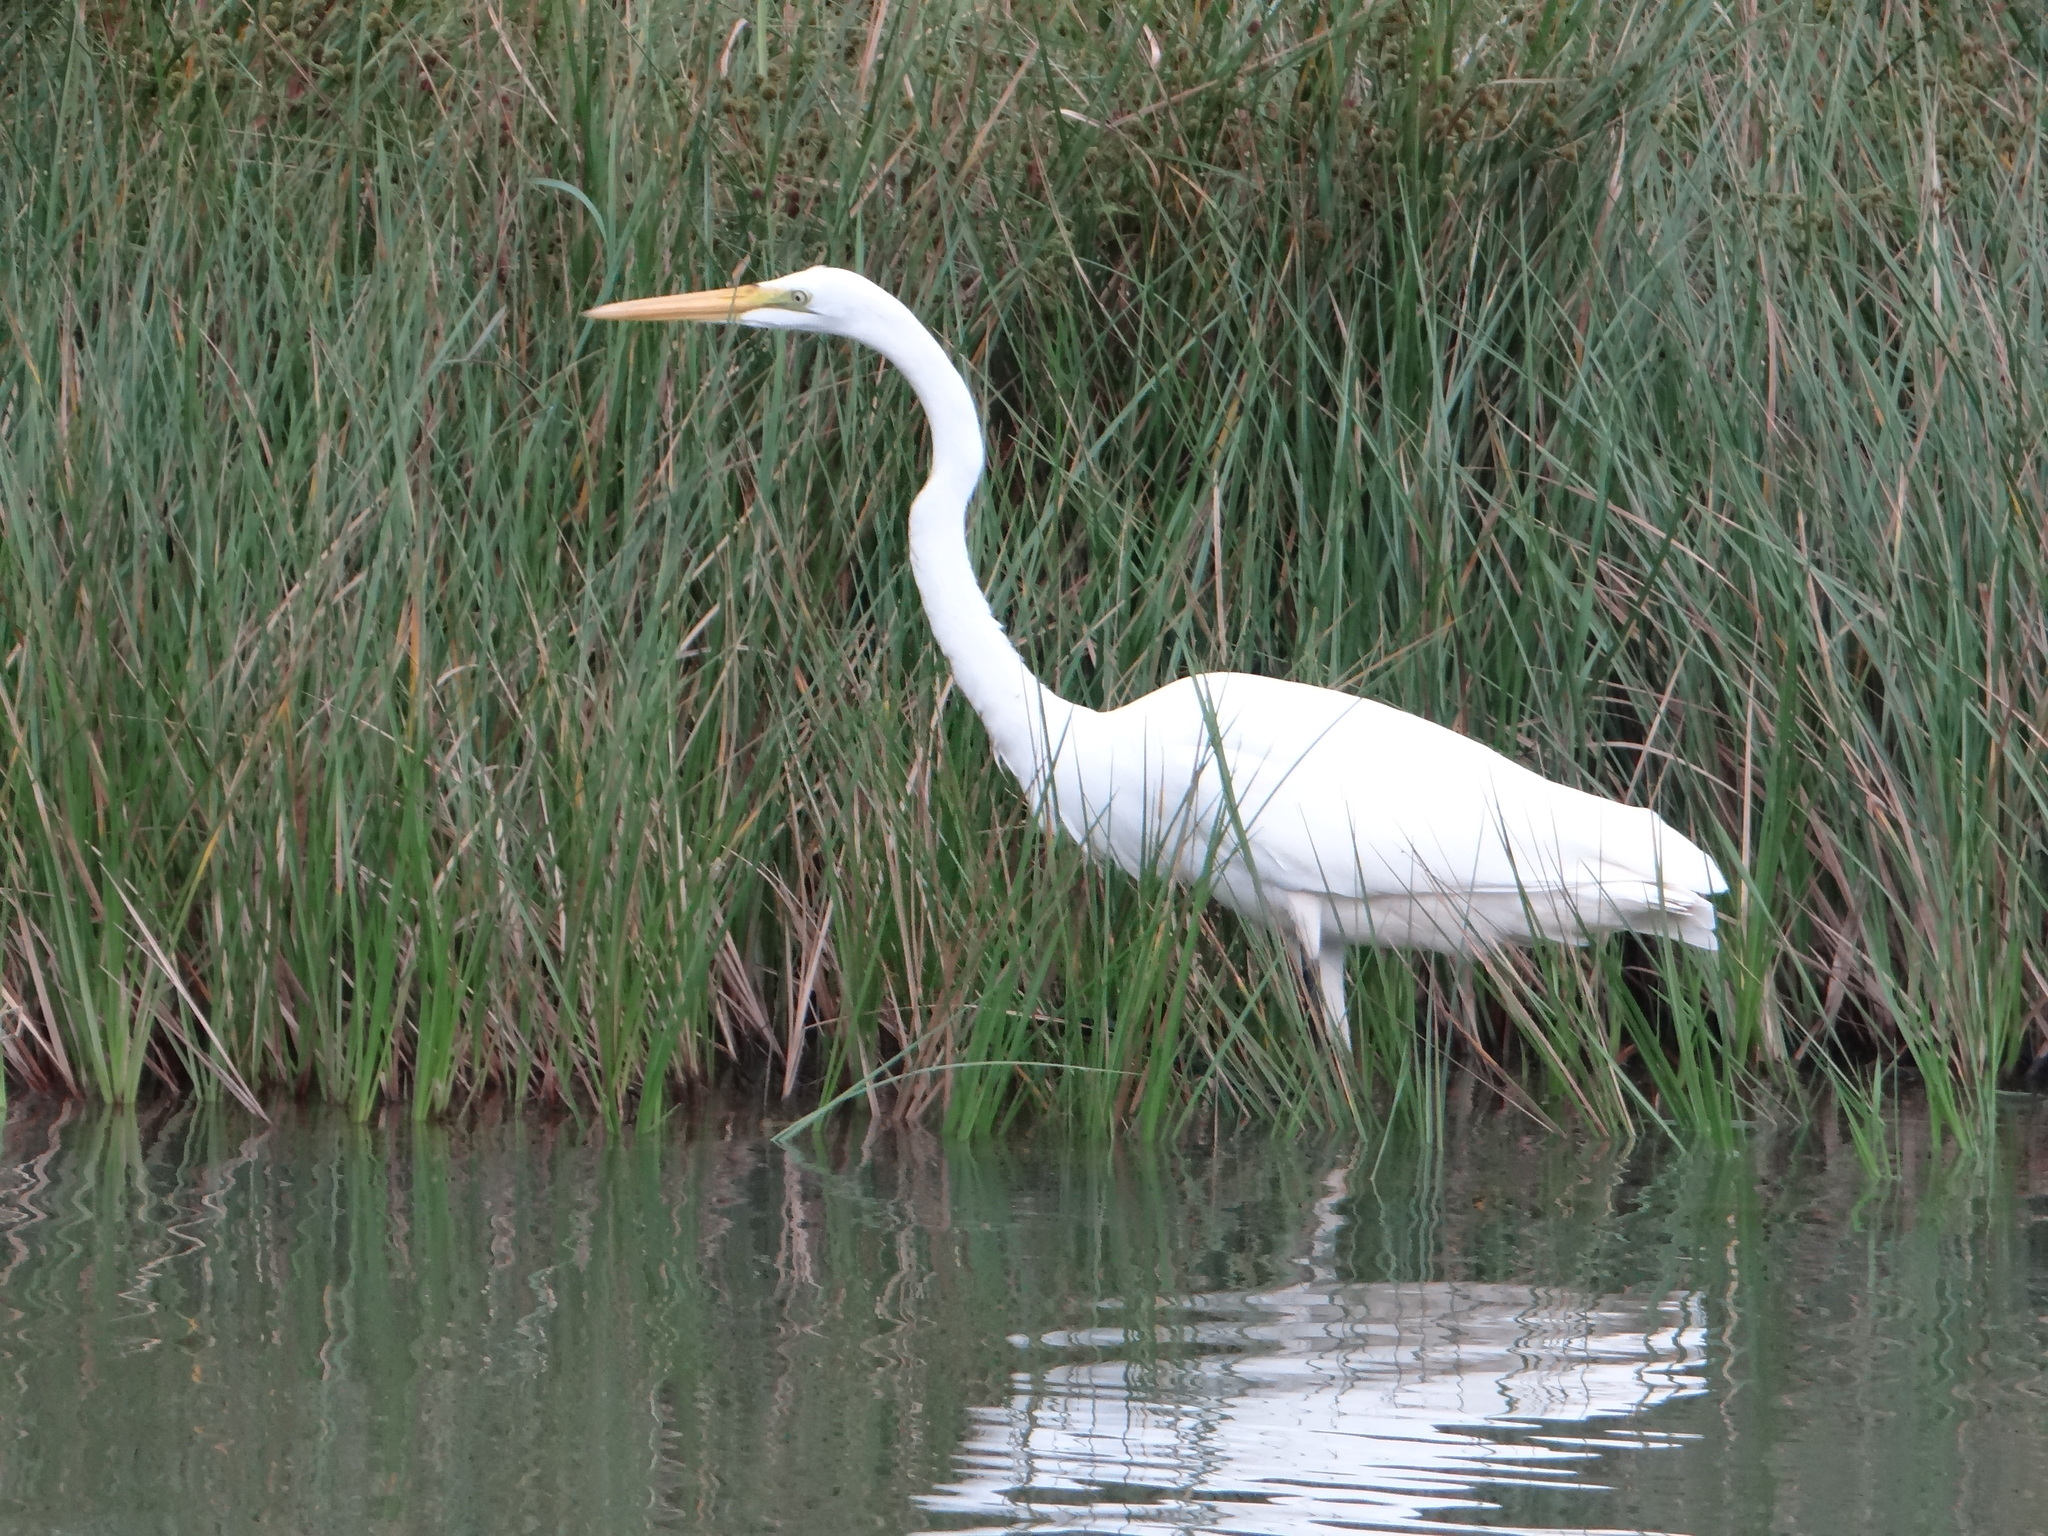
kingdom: Animalia
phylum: Chordata
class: Aves
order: Pelecaniformes
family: Ardeidae
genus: Ardea
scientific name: Ardea alba
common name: Great egret
